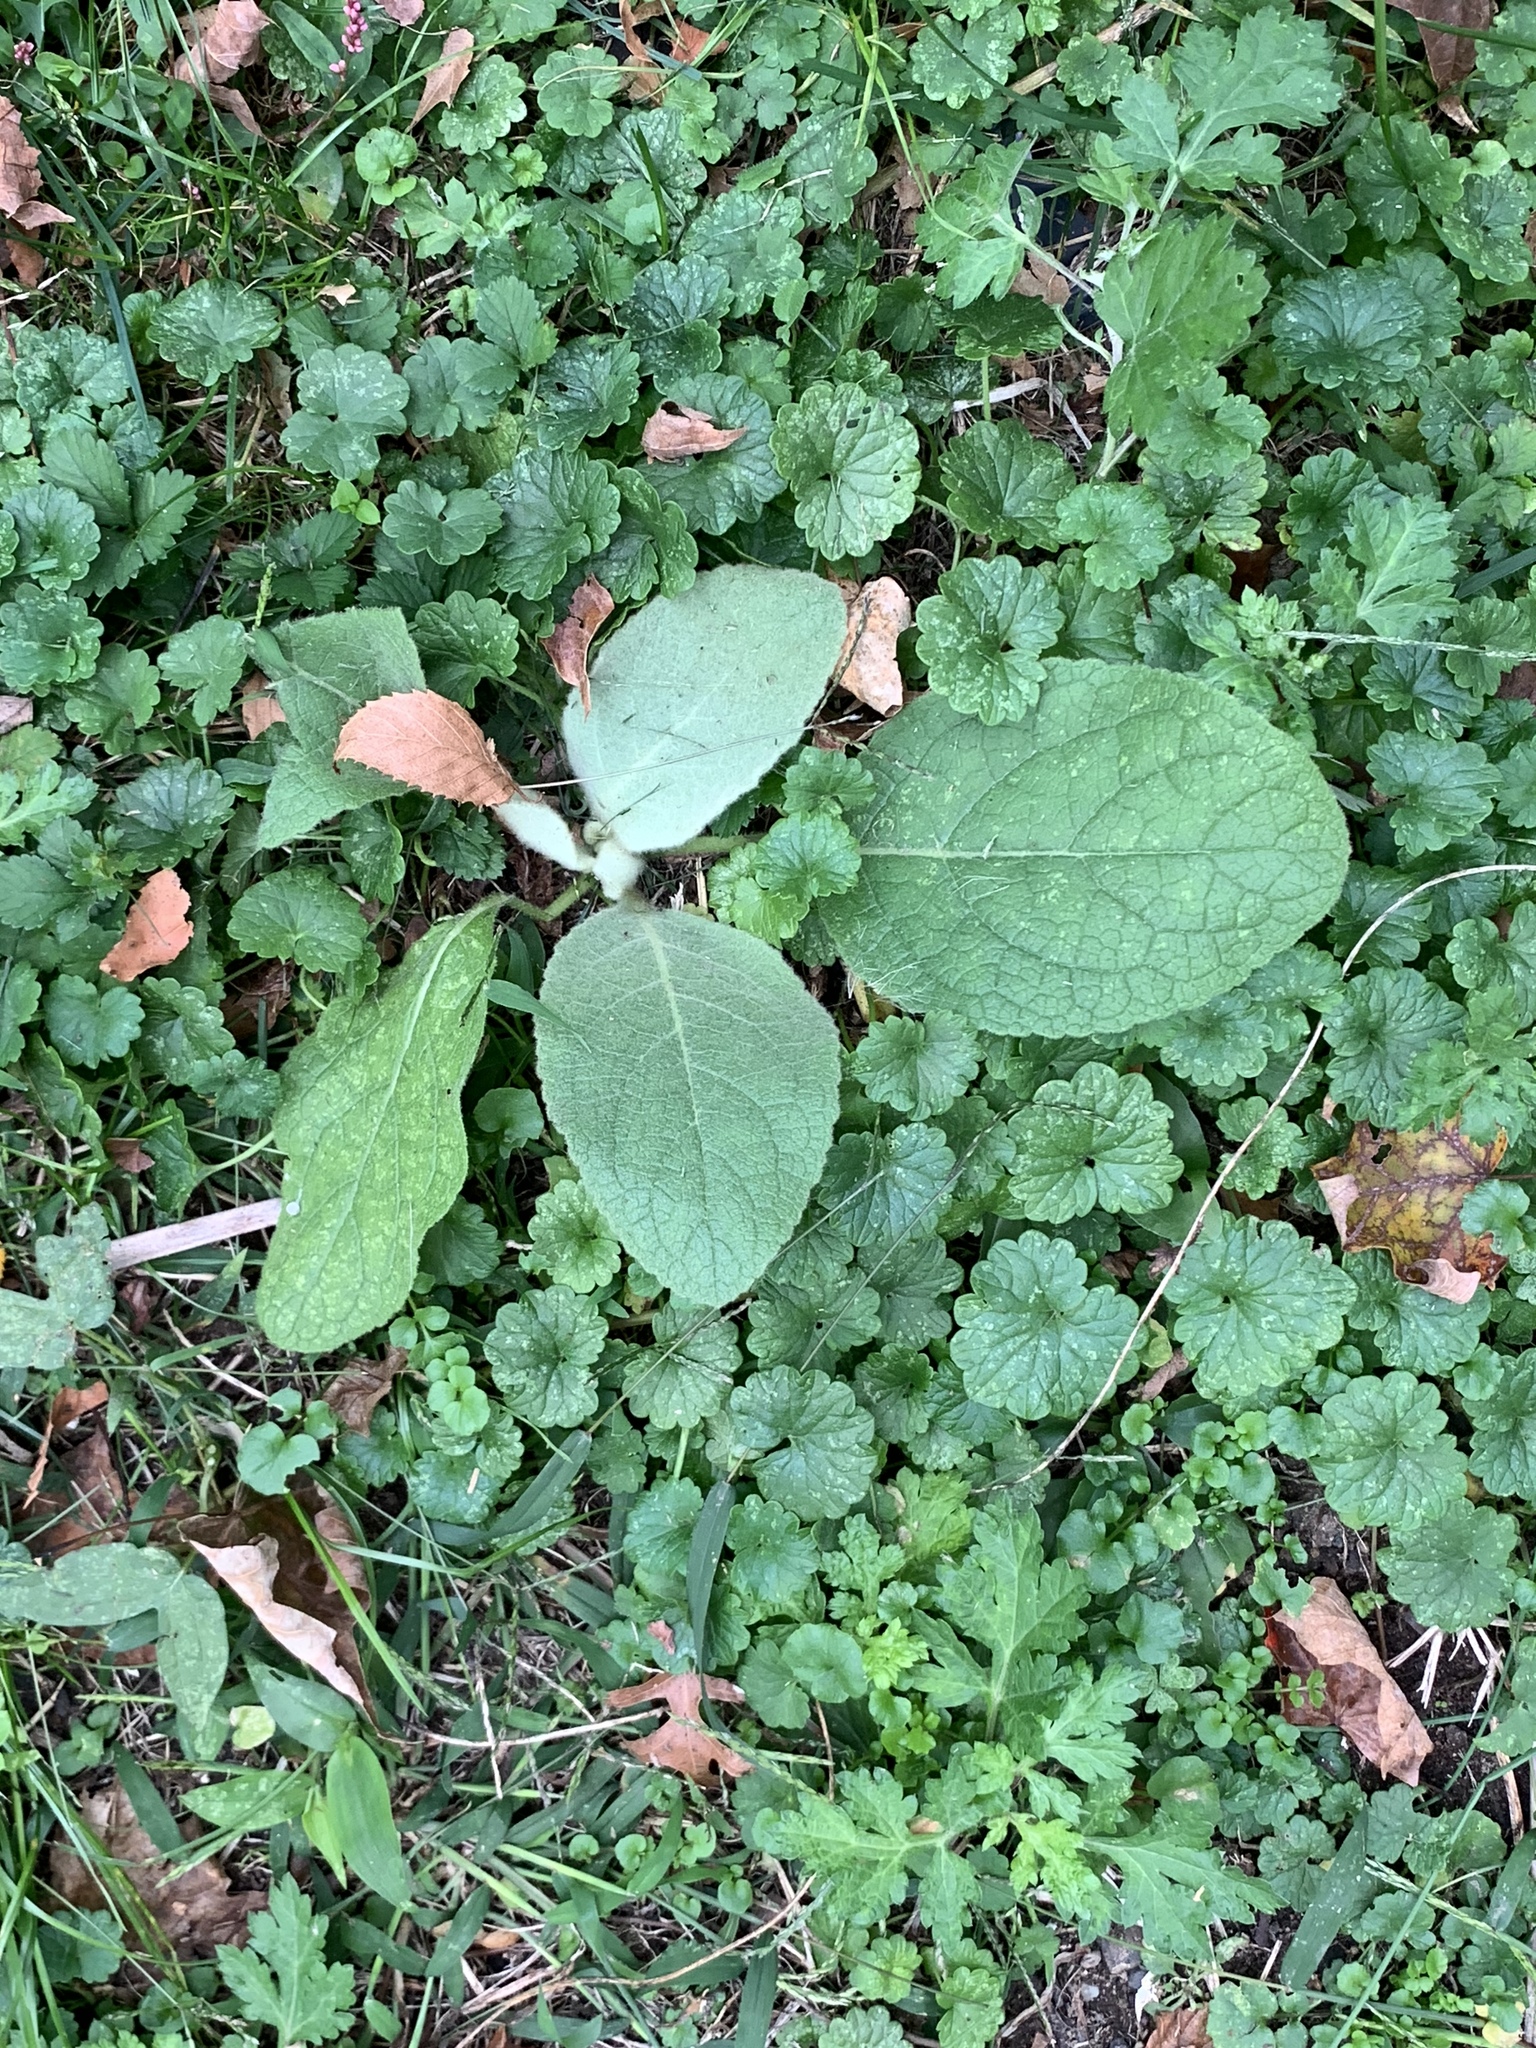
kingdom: Plantae
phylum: Tracheophyta
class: Magnoliopsida
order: Lamiales
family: Scrophulariaceae
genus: Verbascum
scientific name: Verbascum thapsus
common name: Common mullein
